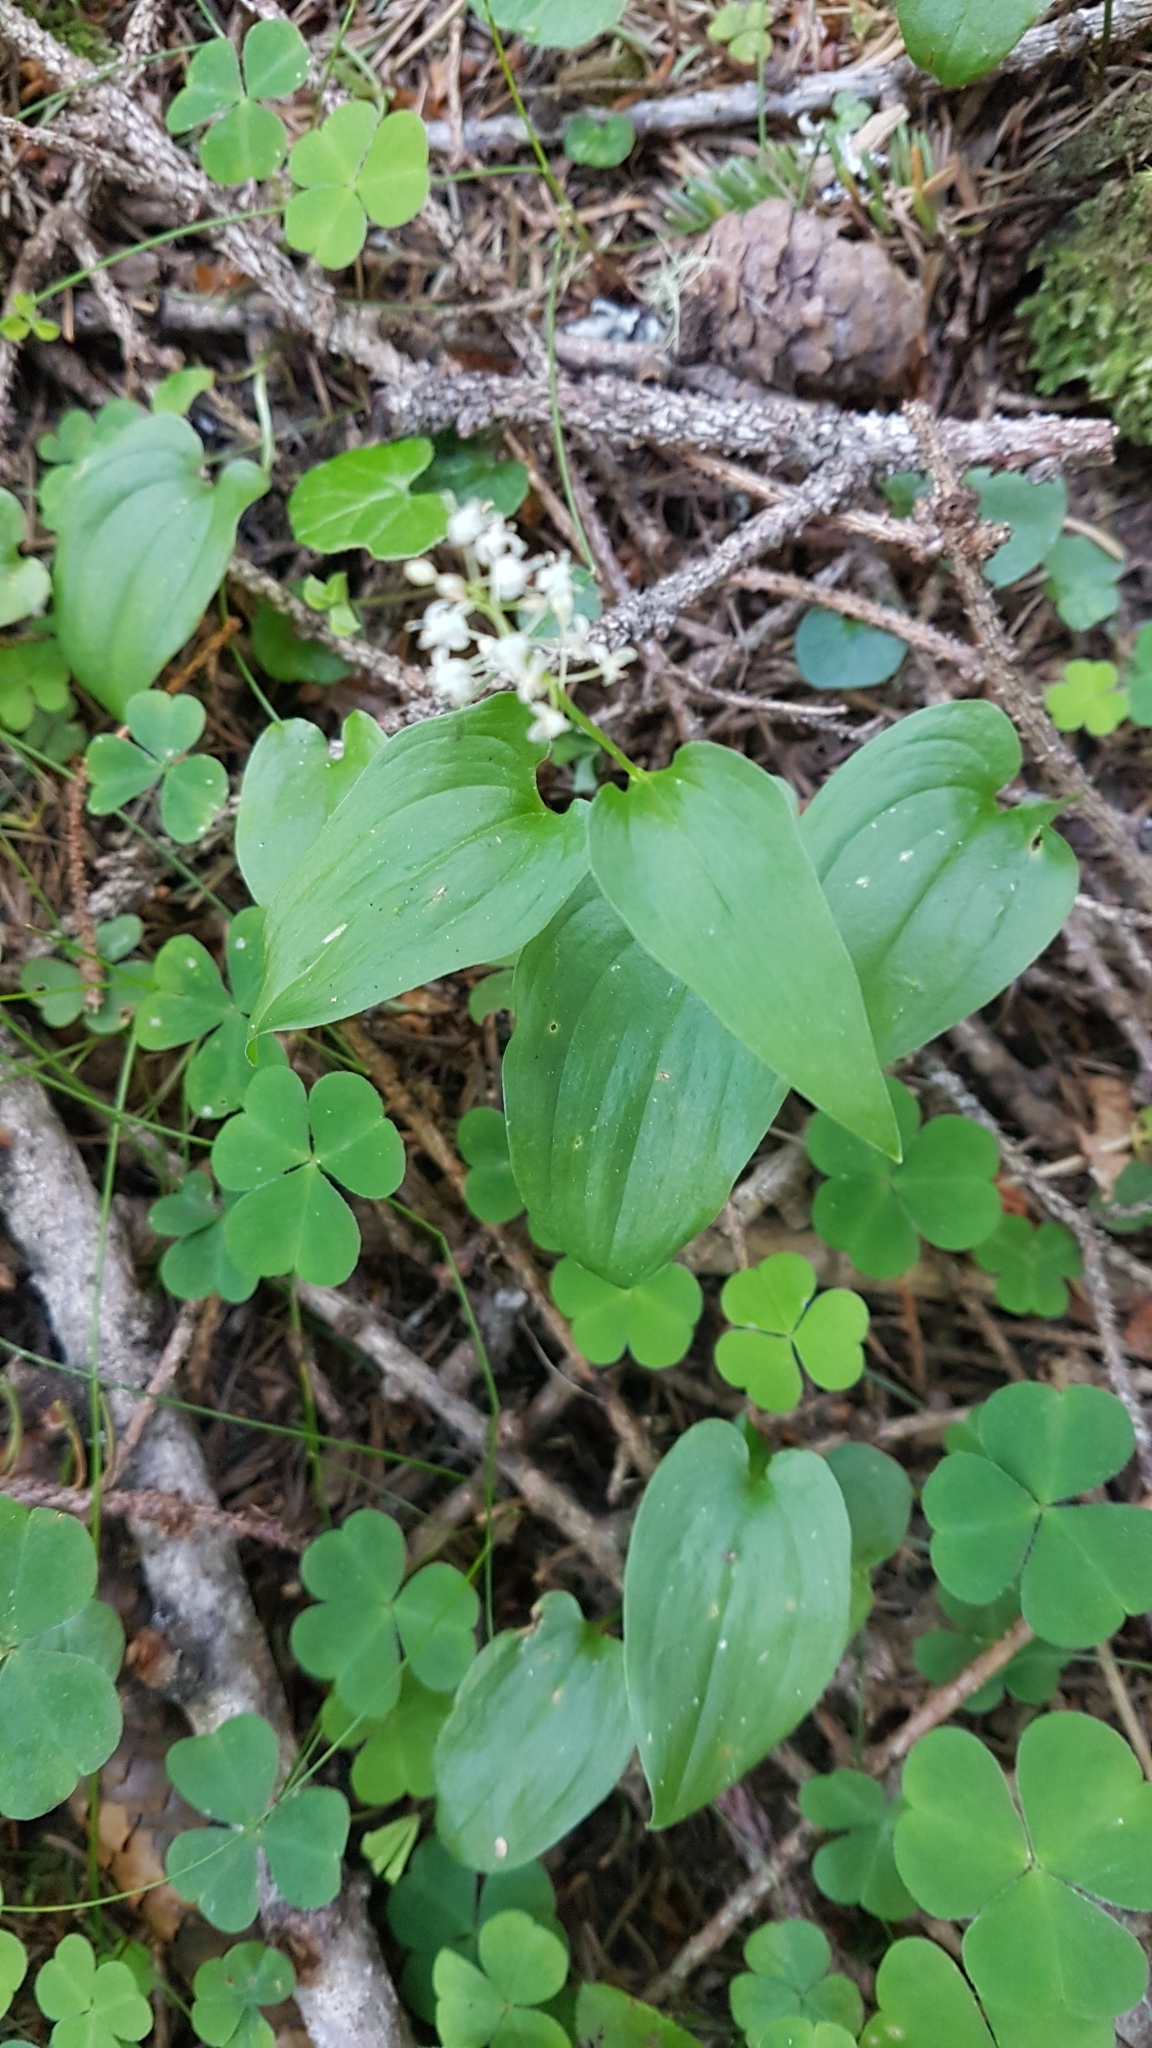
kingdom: Plantae
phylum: Tracheophyta
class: Liliopsida
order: Asparagales
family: Asparagaceae
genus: Maianthemum
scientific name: Maianthemum bifolium
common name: May lily
